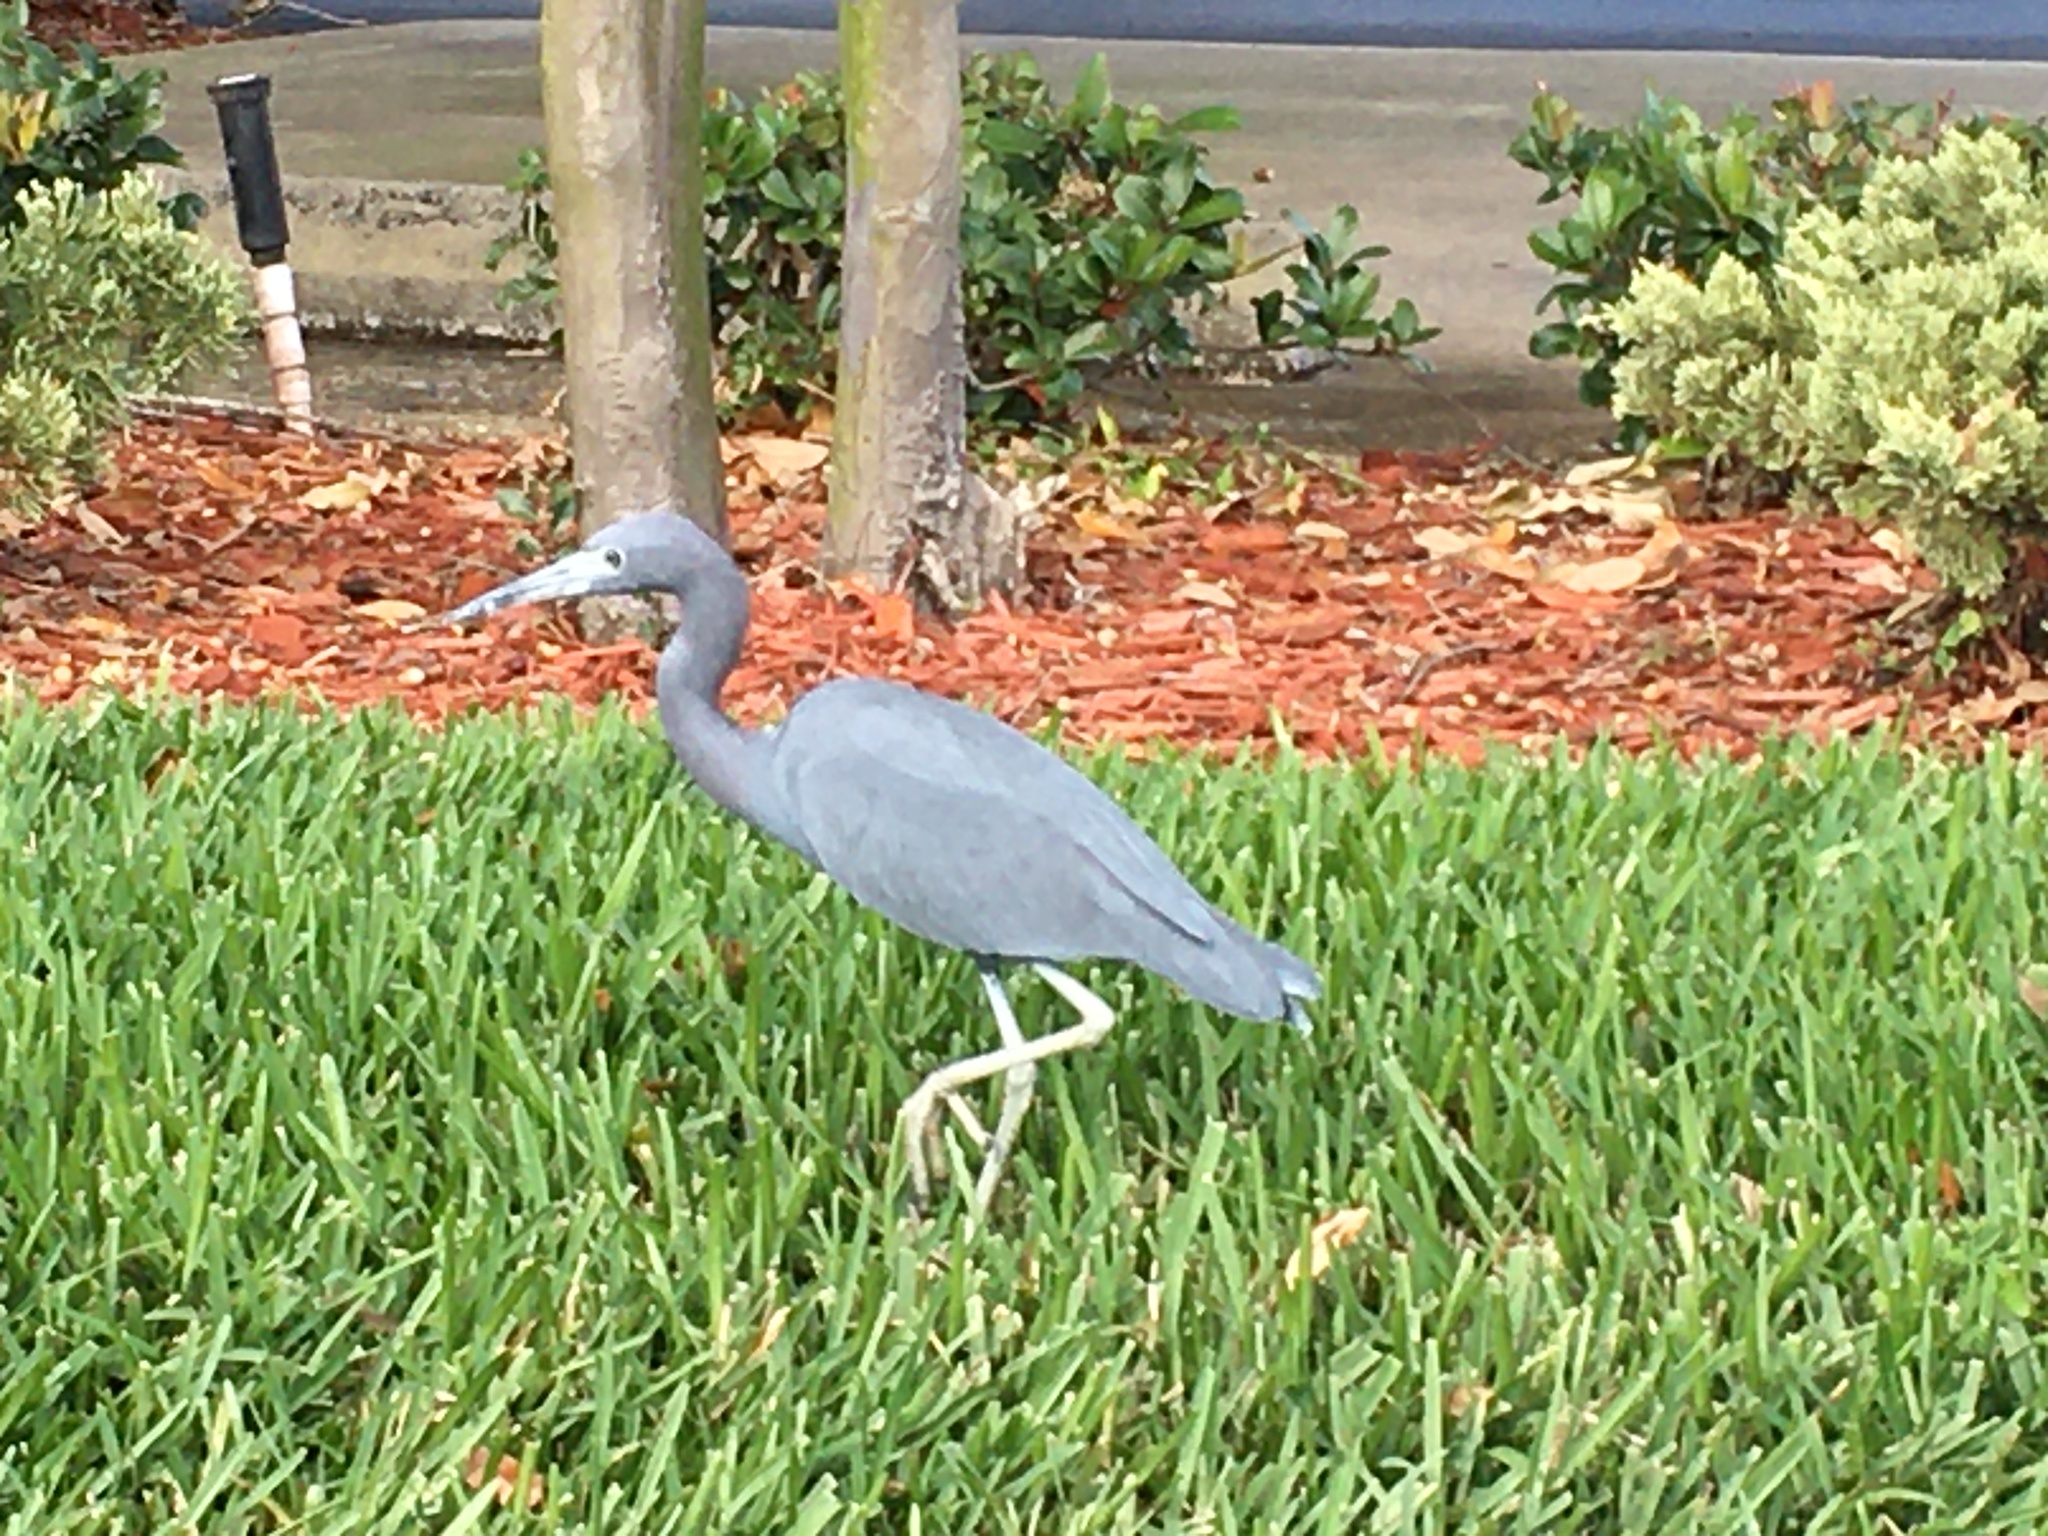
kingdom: Animalia
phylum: Chordata
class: Aves
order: Pelecaniformes
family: Ardeidae
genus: Egretta
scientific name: Egretta caerulea
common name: Little blue heron
